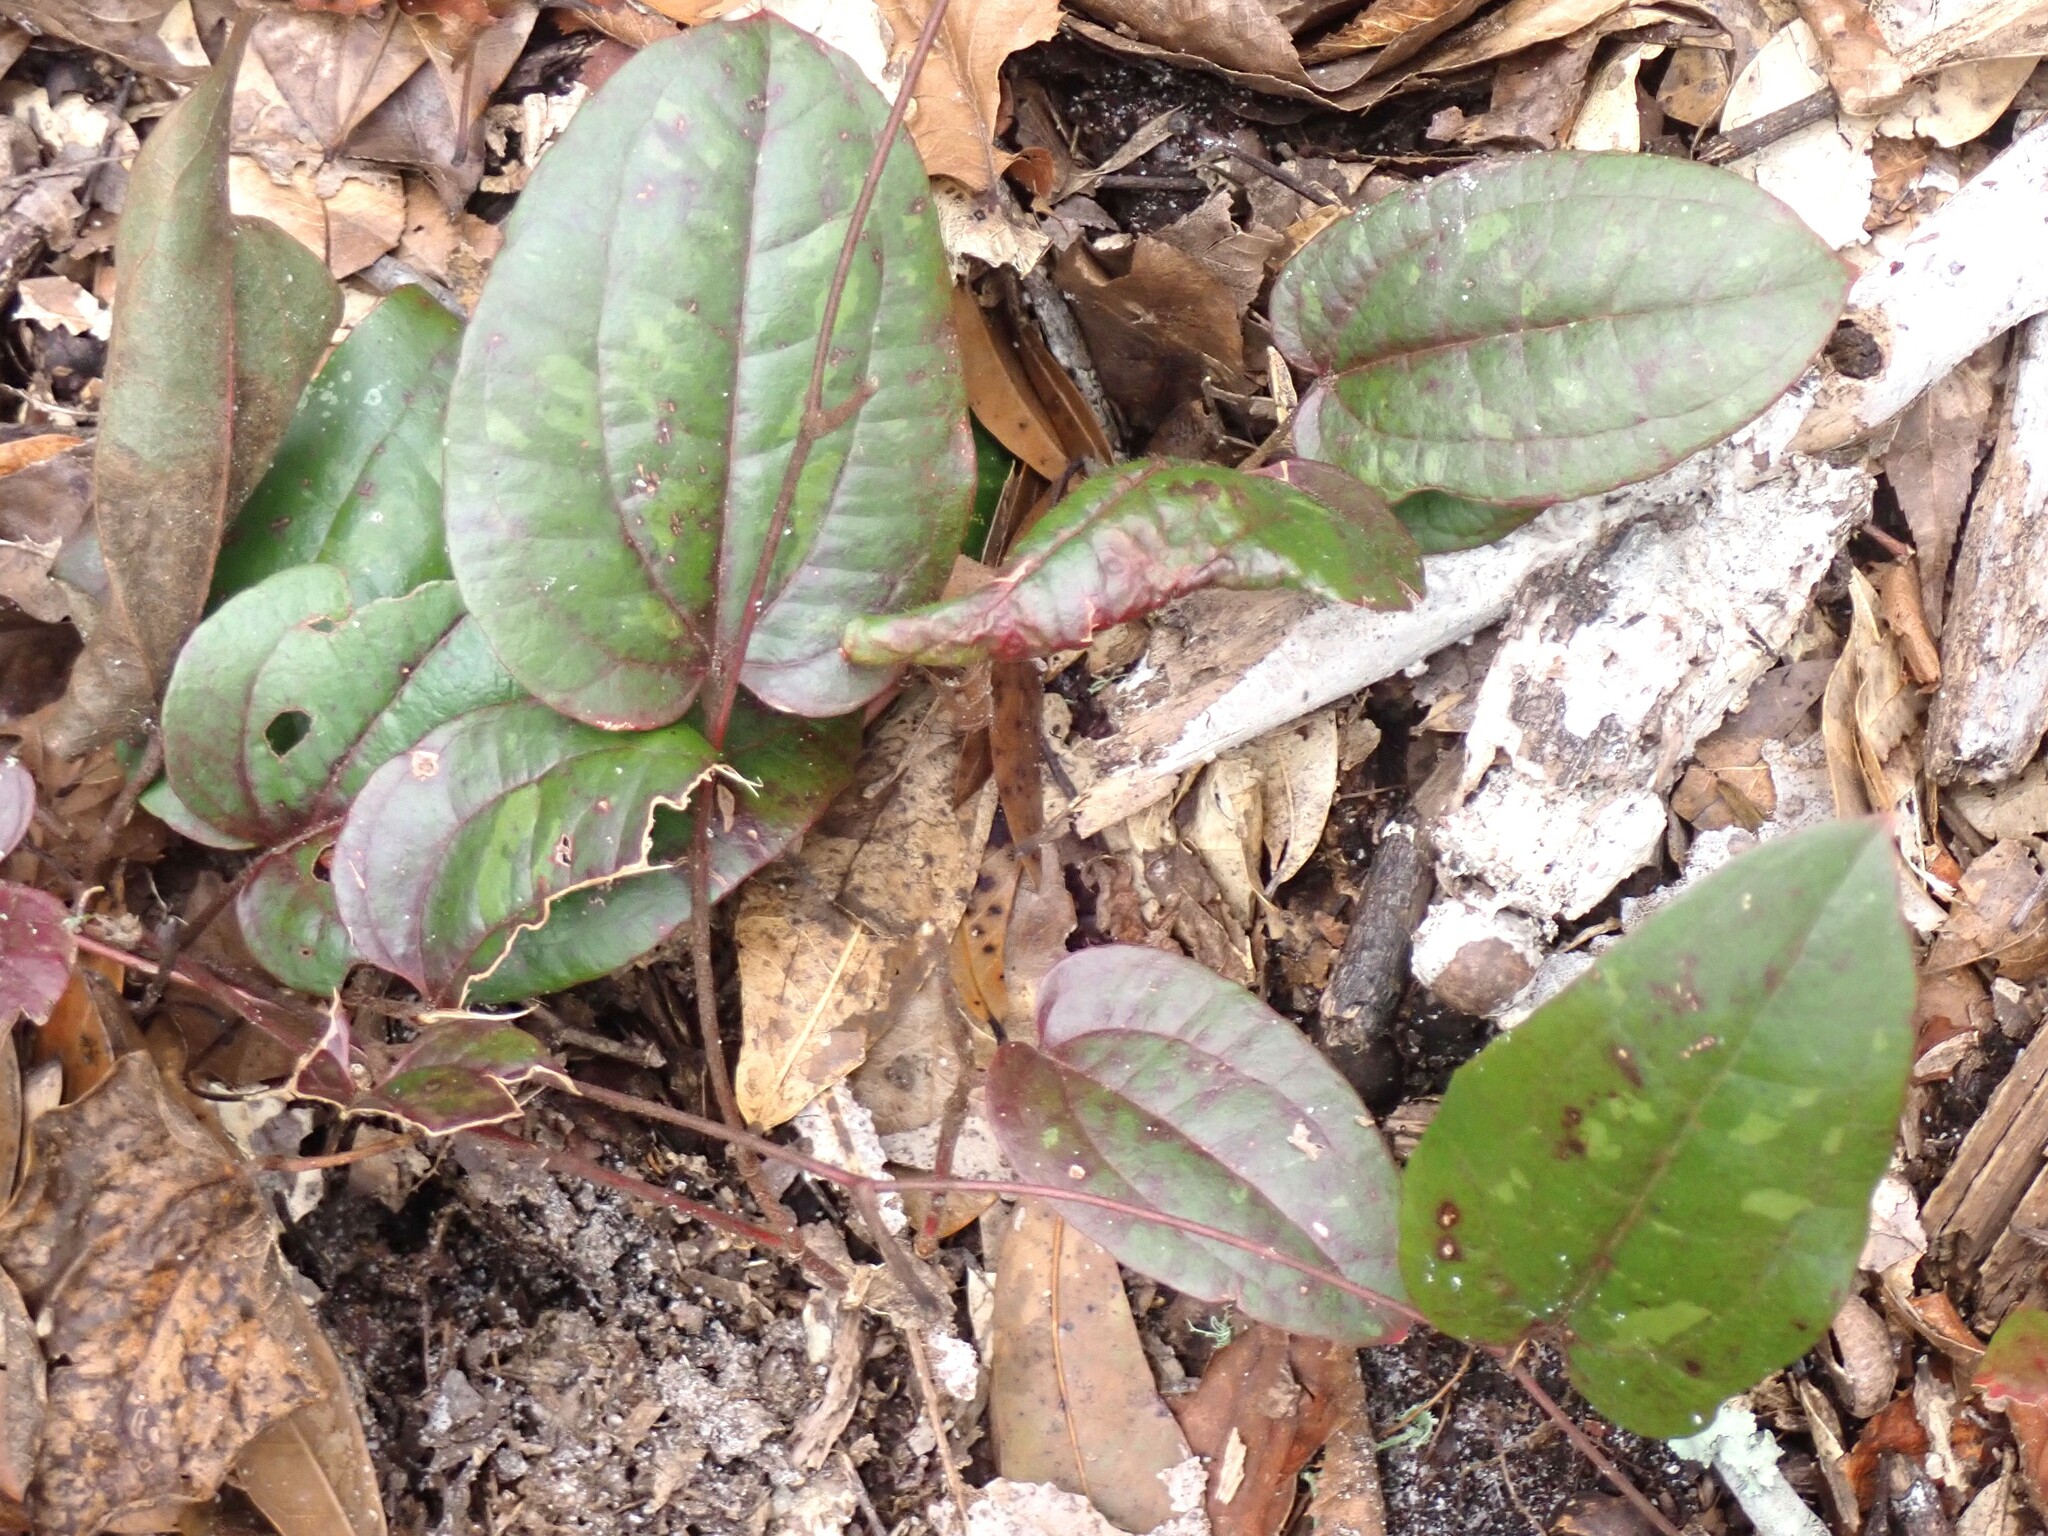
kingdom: Plantae
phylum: Tracheophyta
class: Liliopsida
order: Liliales
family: Smilacaceae
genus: Smilax
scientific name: Smilax pumila
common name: Sarsaparilla-vine
